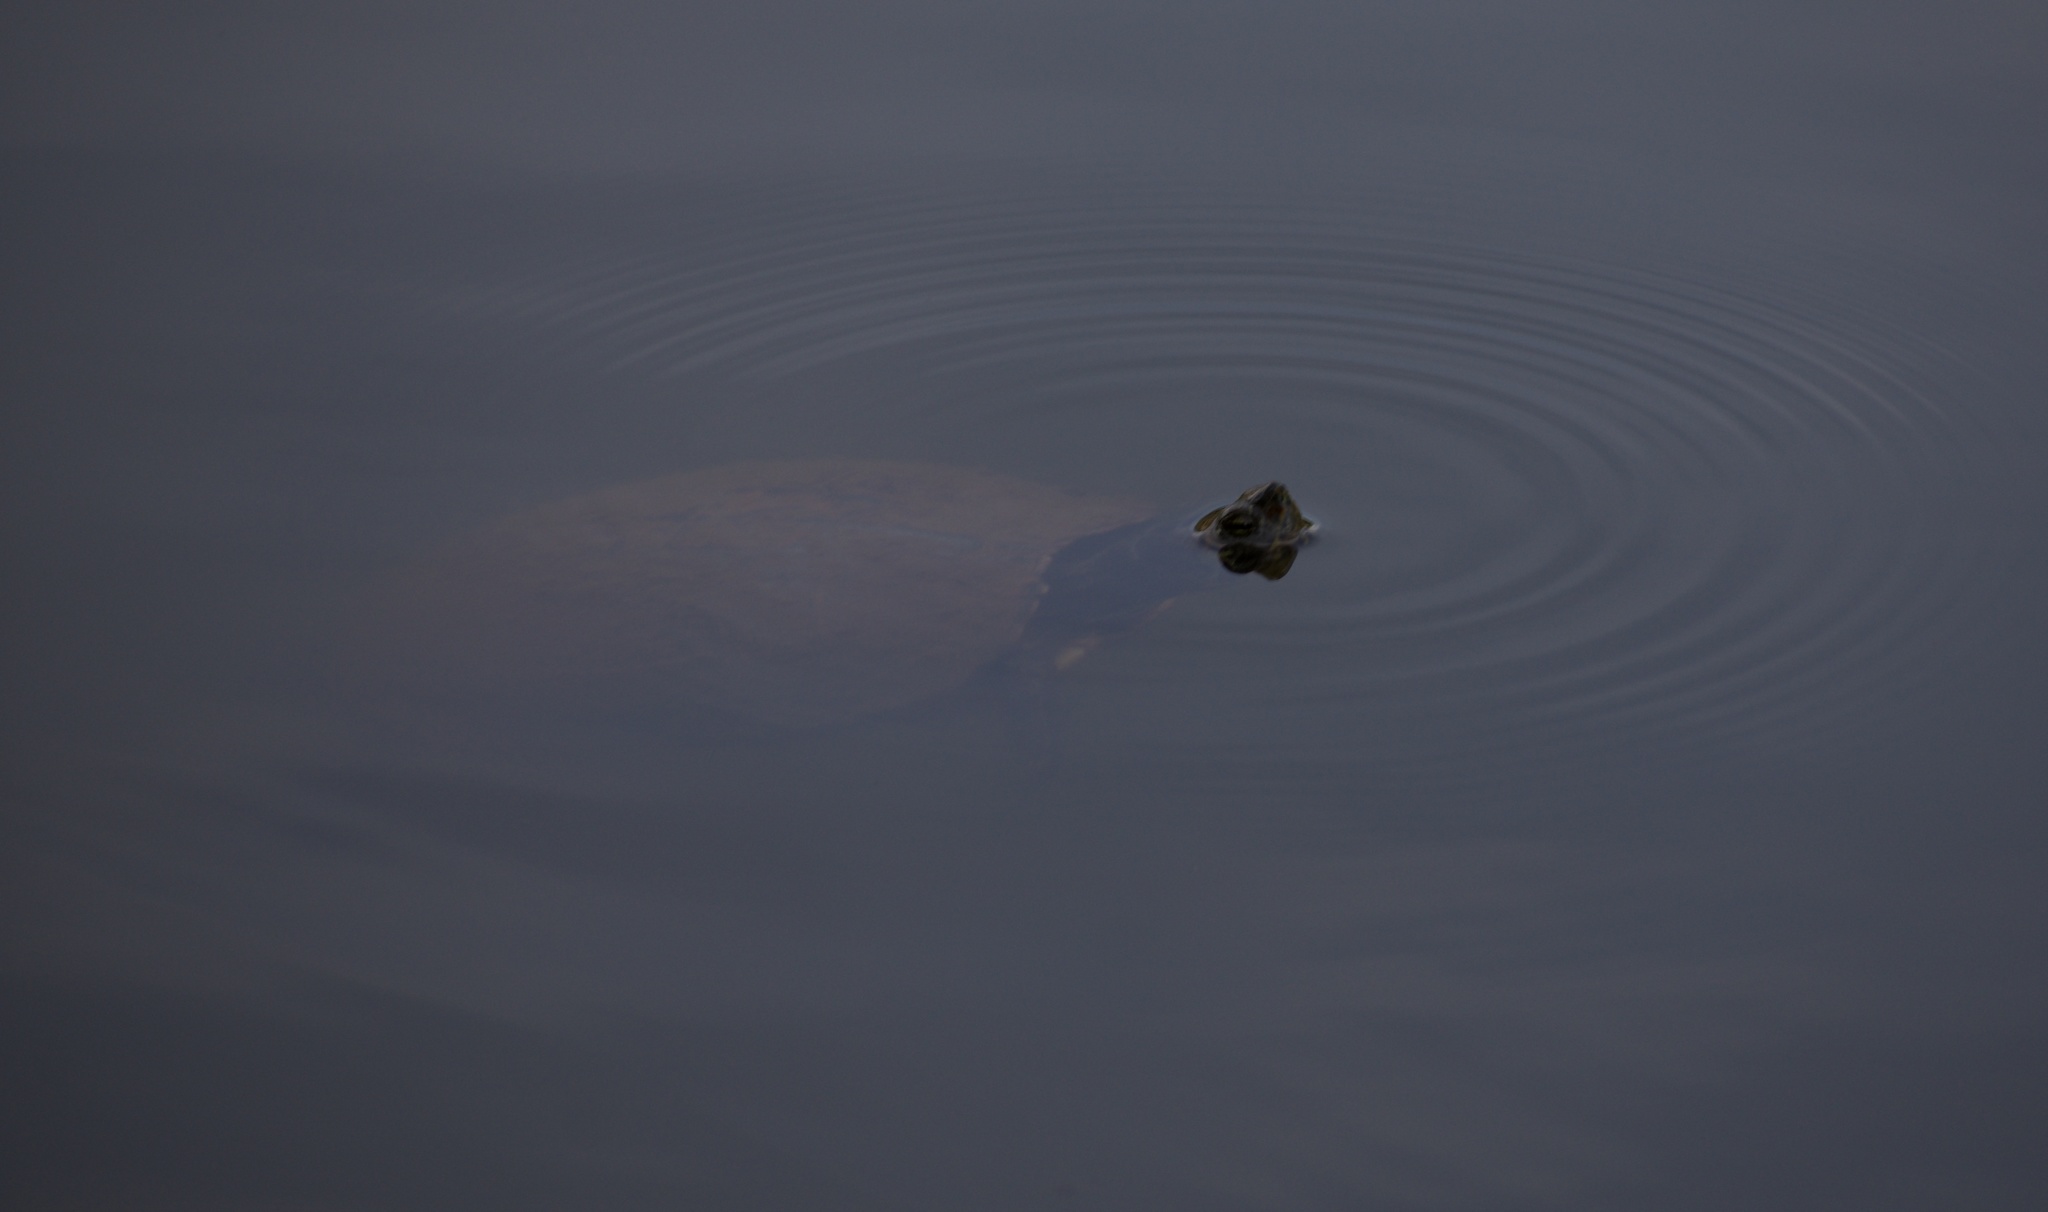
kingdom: Animalia
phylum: Chordata
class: Testudines
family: Emydidae
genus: Trachemys
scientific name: Trachemys scripta
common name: Slider
